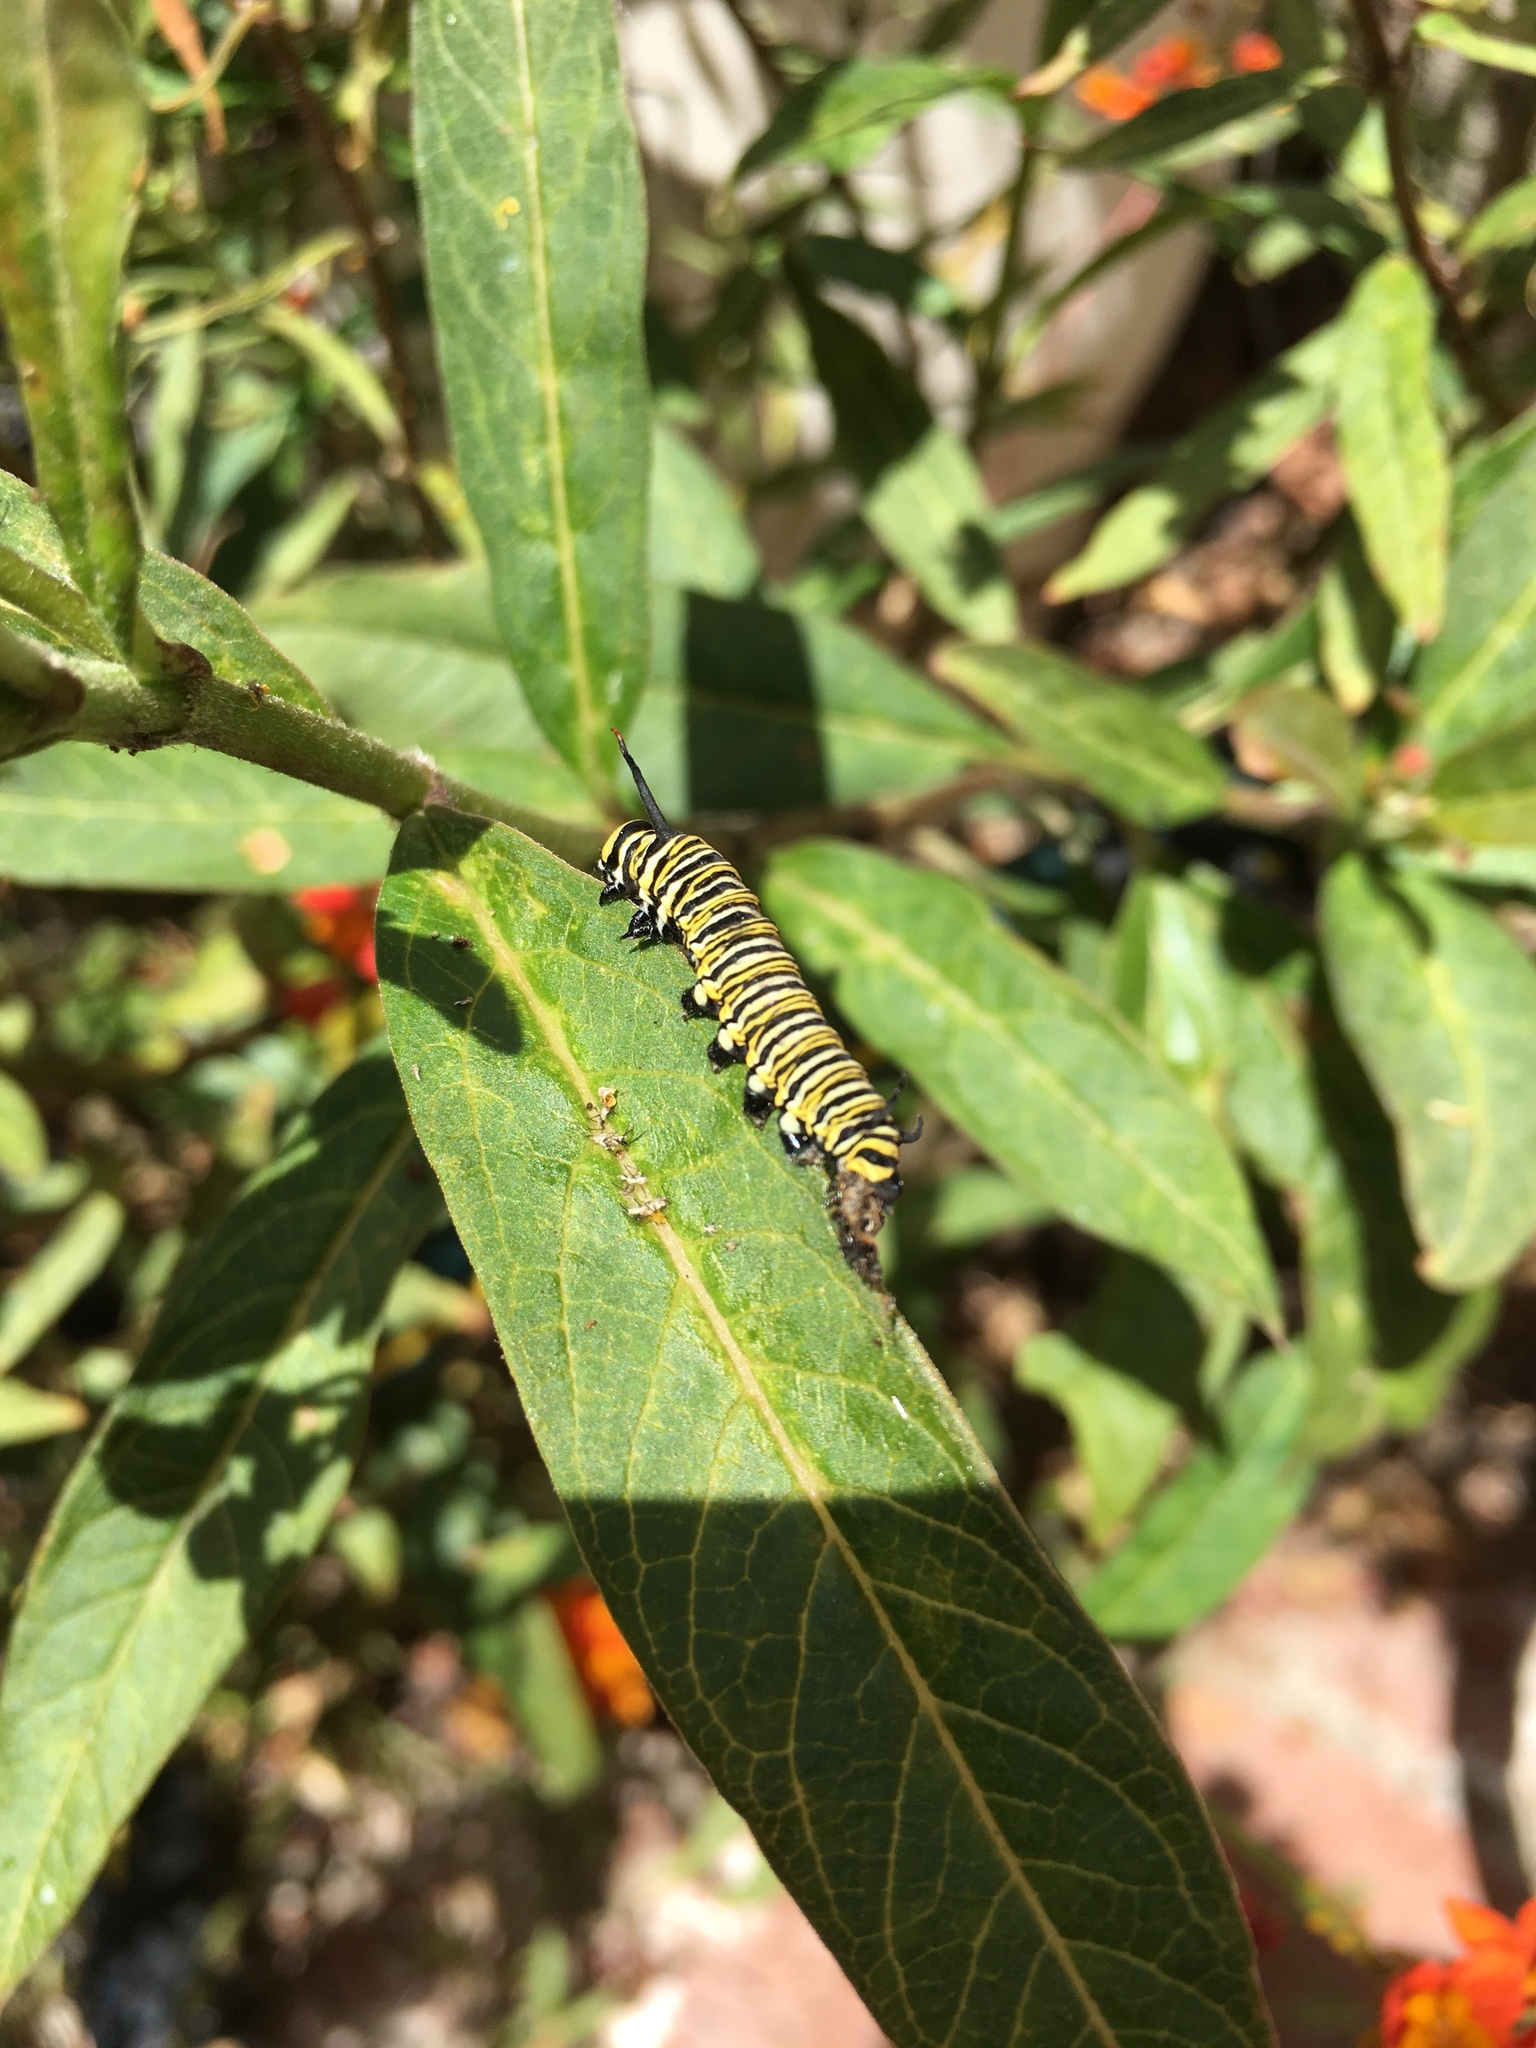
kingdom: Animalia
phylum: Arthropoda
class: Insecta
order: Lepidoptera
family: Nymphalidae
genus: Danaus
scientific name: Danaus plexippus
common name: Monarch
